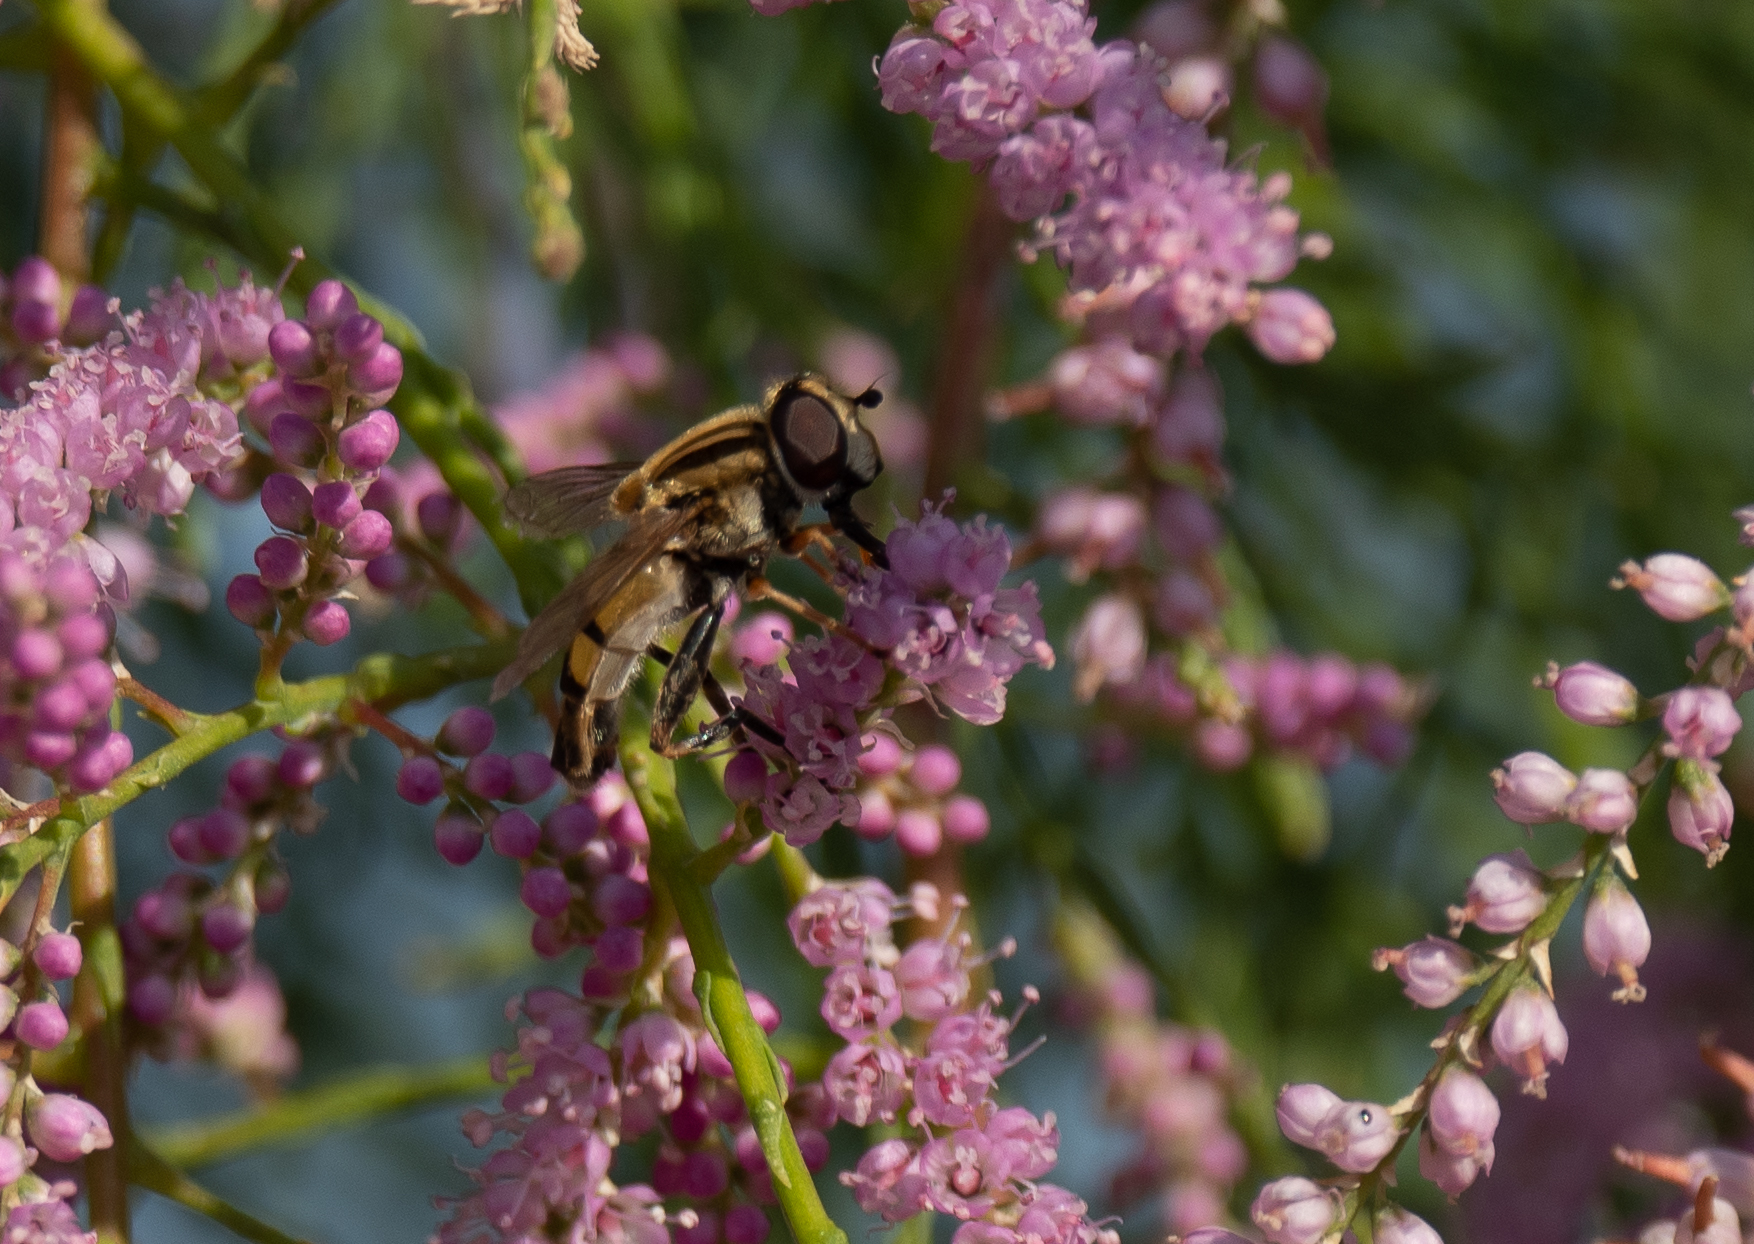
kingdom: Animalia
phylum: Arthropoda
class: Insecta
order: Diptera
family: Syrphidae
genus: Helophilus
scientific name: Helophilus latifrons
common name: Broad-headed marsh fly
